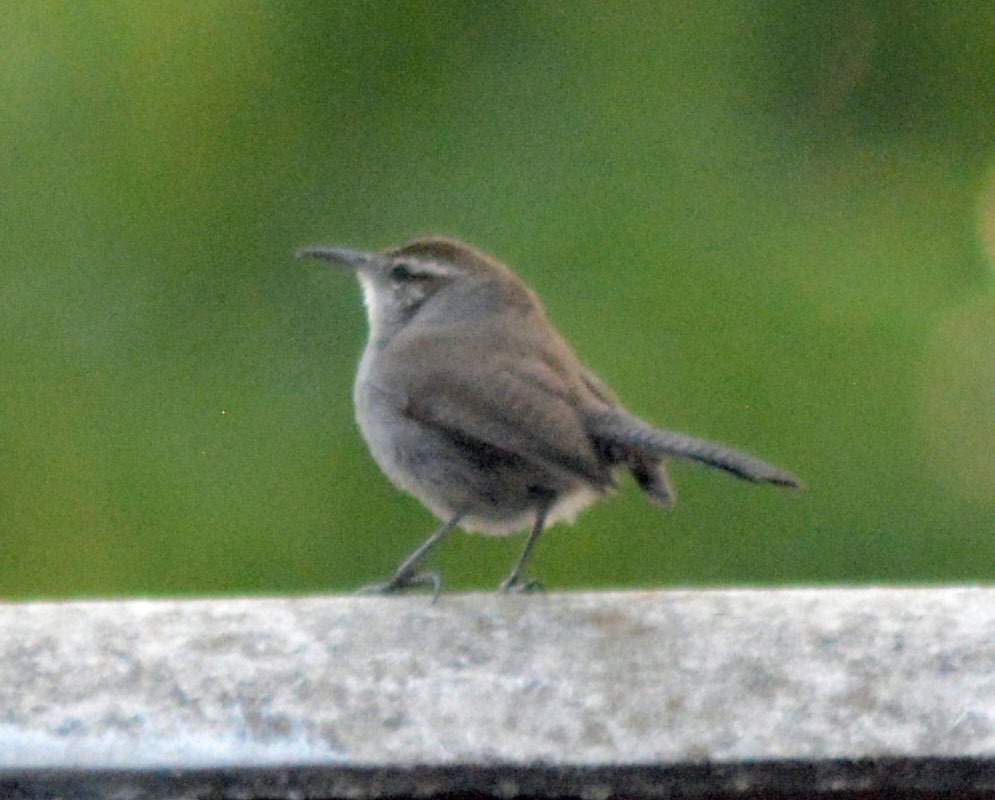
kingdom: Animalia
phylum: Chordata
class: Aves
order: Passeriformes
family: Troglodytidae
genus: Thryomanes
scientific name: Thryomanes bewickii
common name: Bewick's wren
